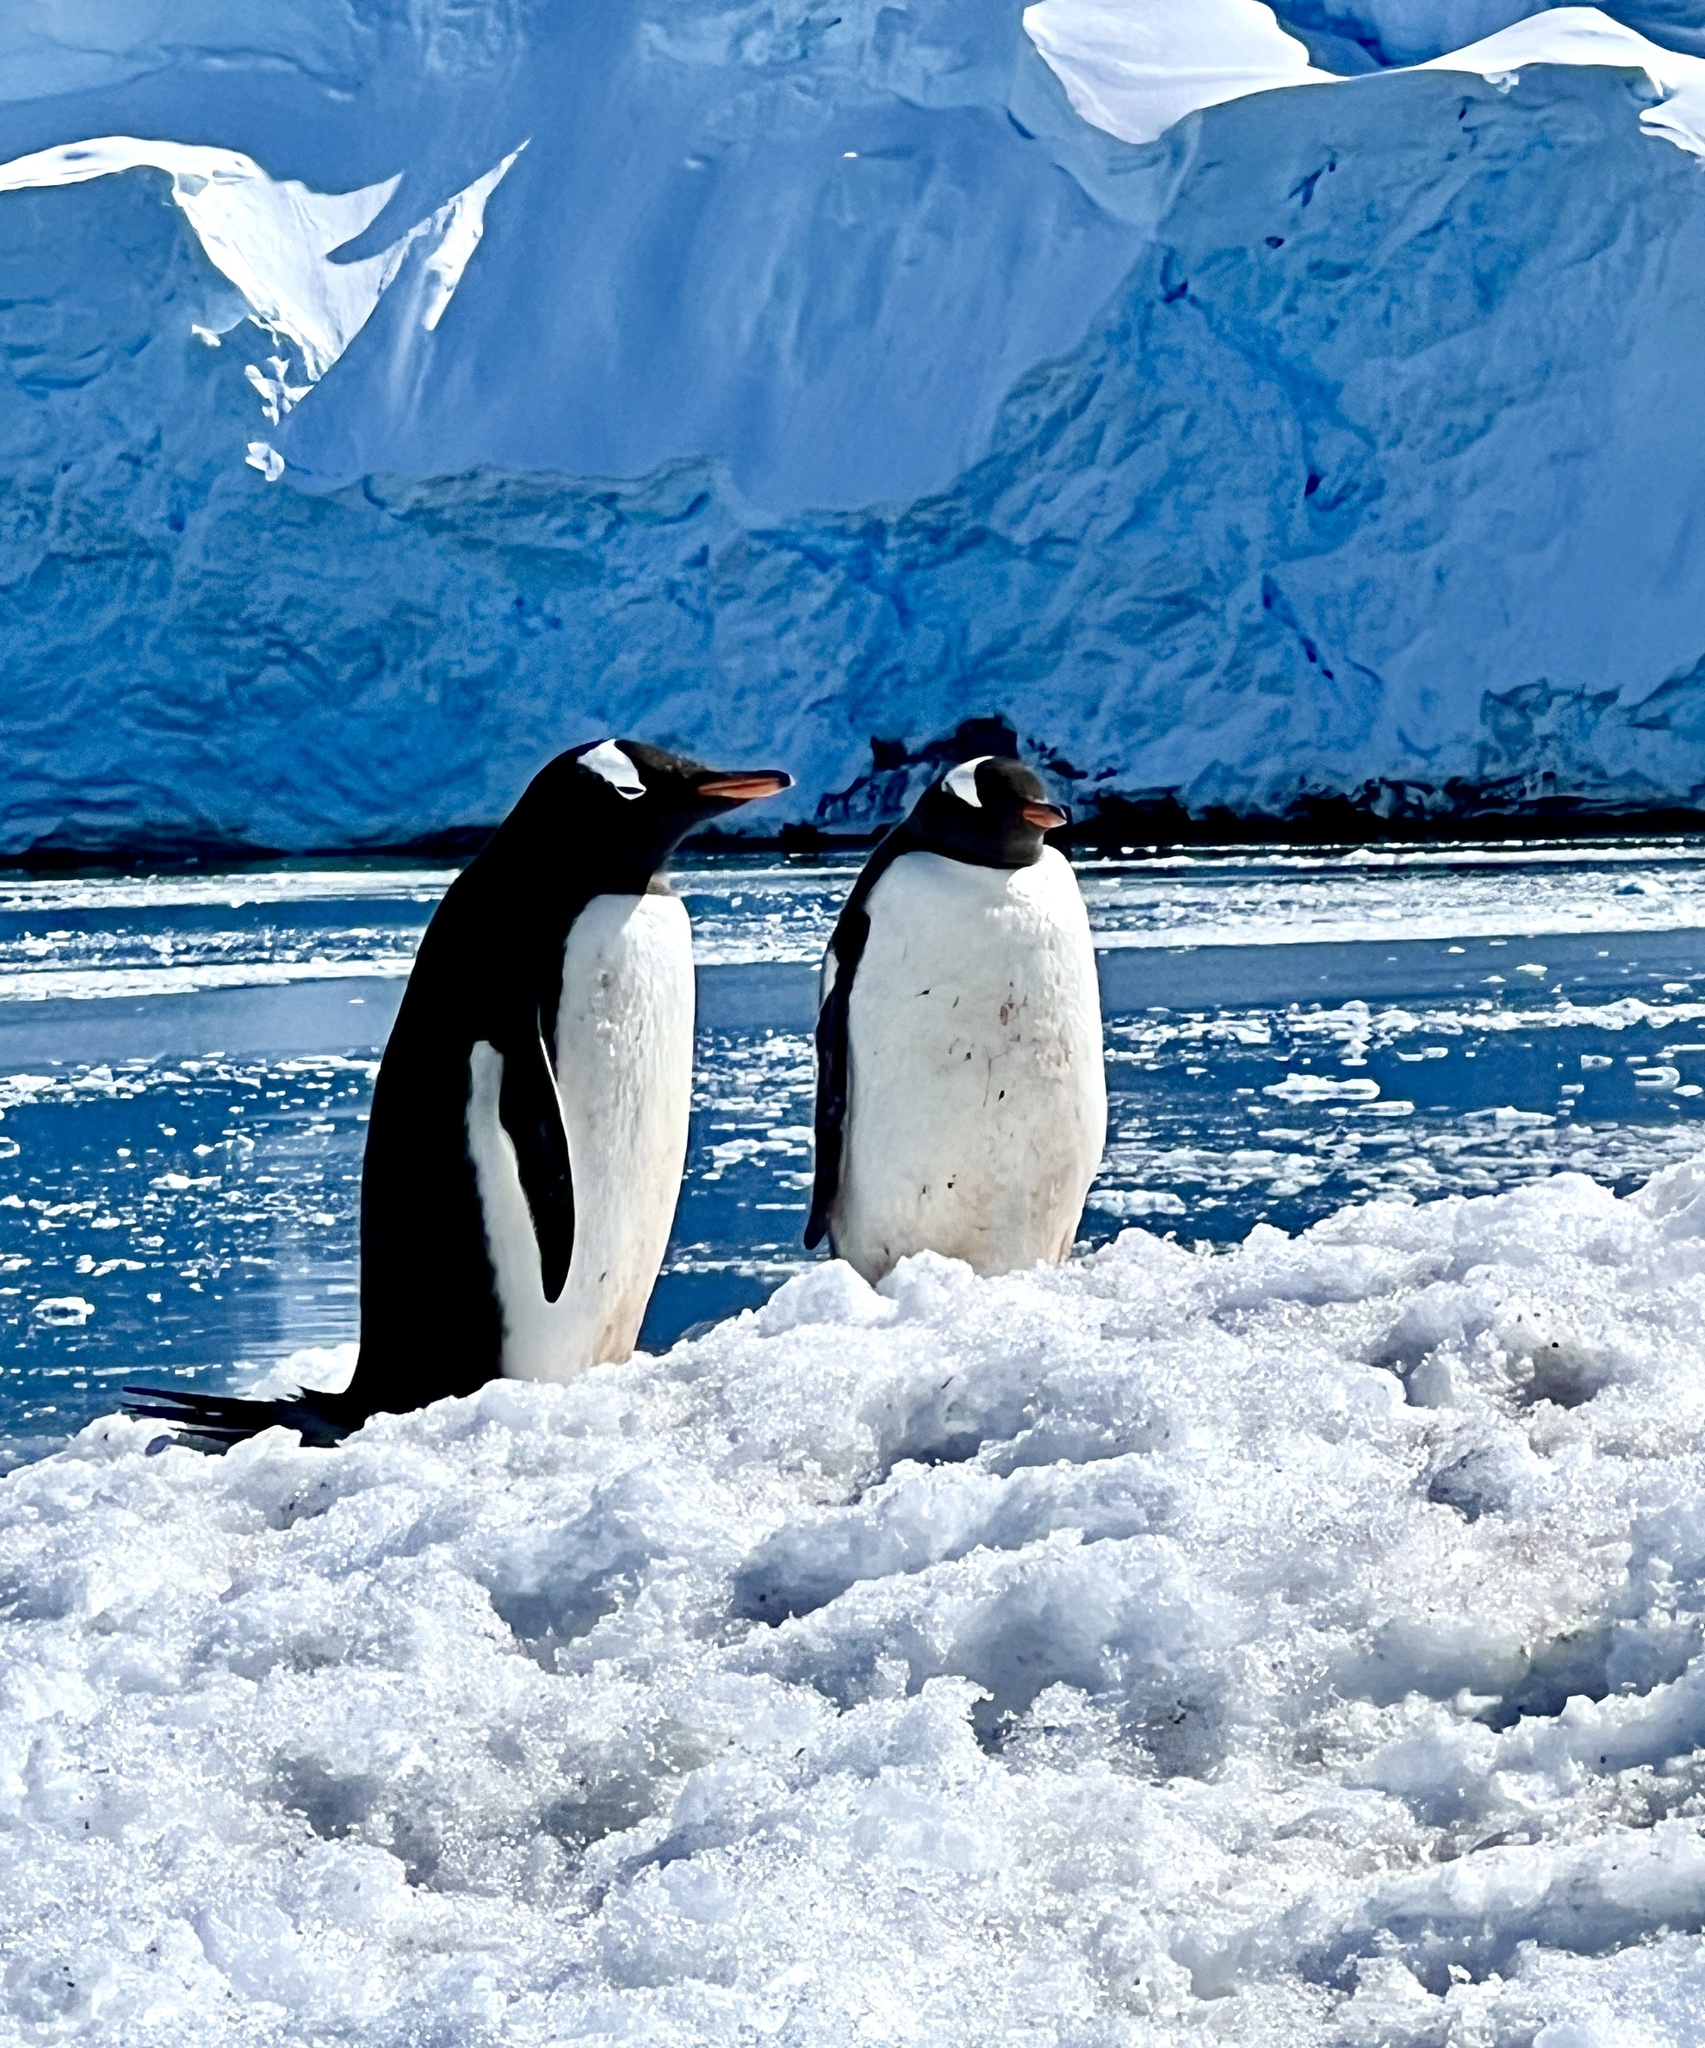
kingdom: Animalia
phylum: Chordata
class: Aves
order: Sphenisciformes
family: Spheniscidae
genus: Pygoscelis
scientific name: Pygoscelis papua
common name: Gentoo penguin
